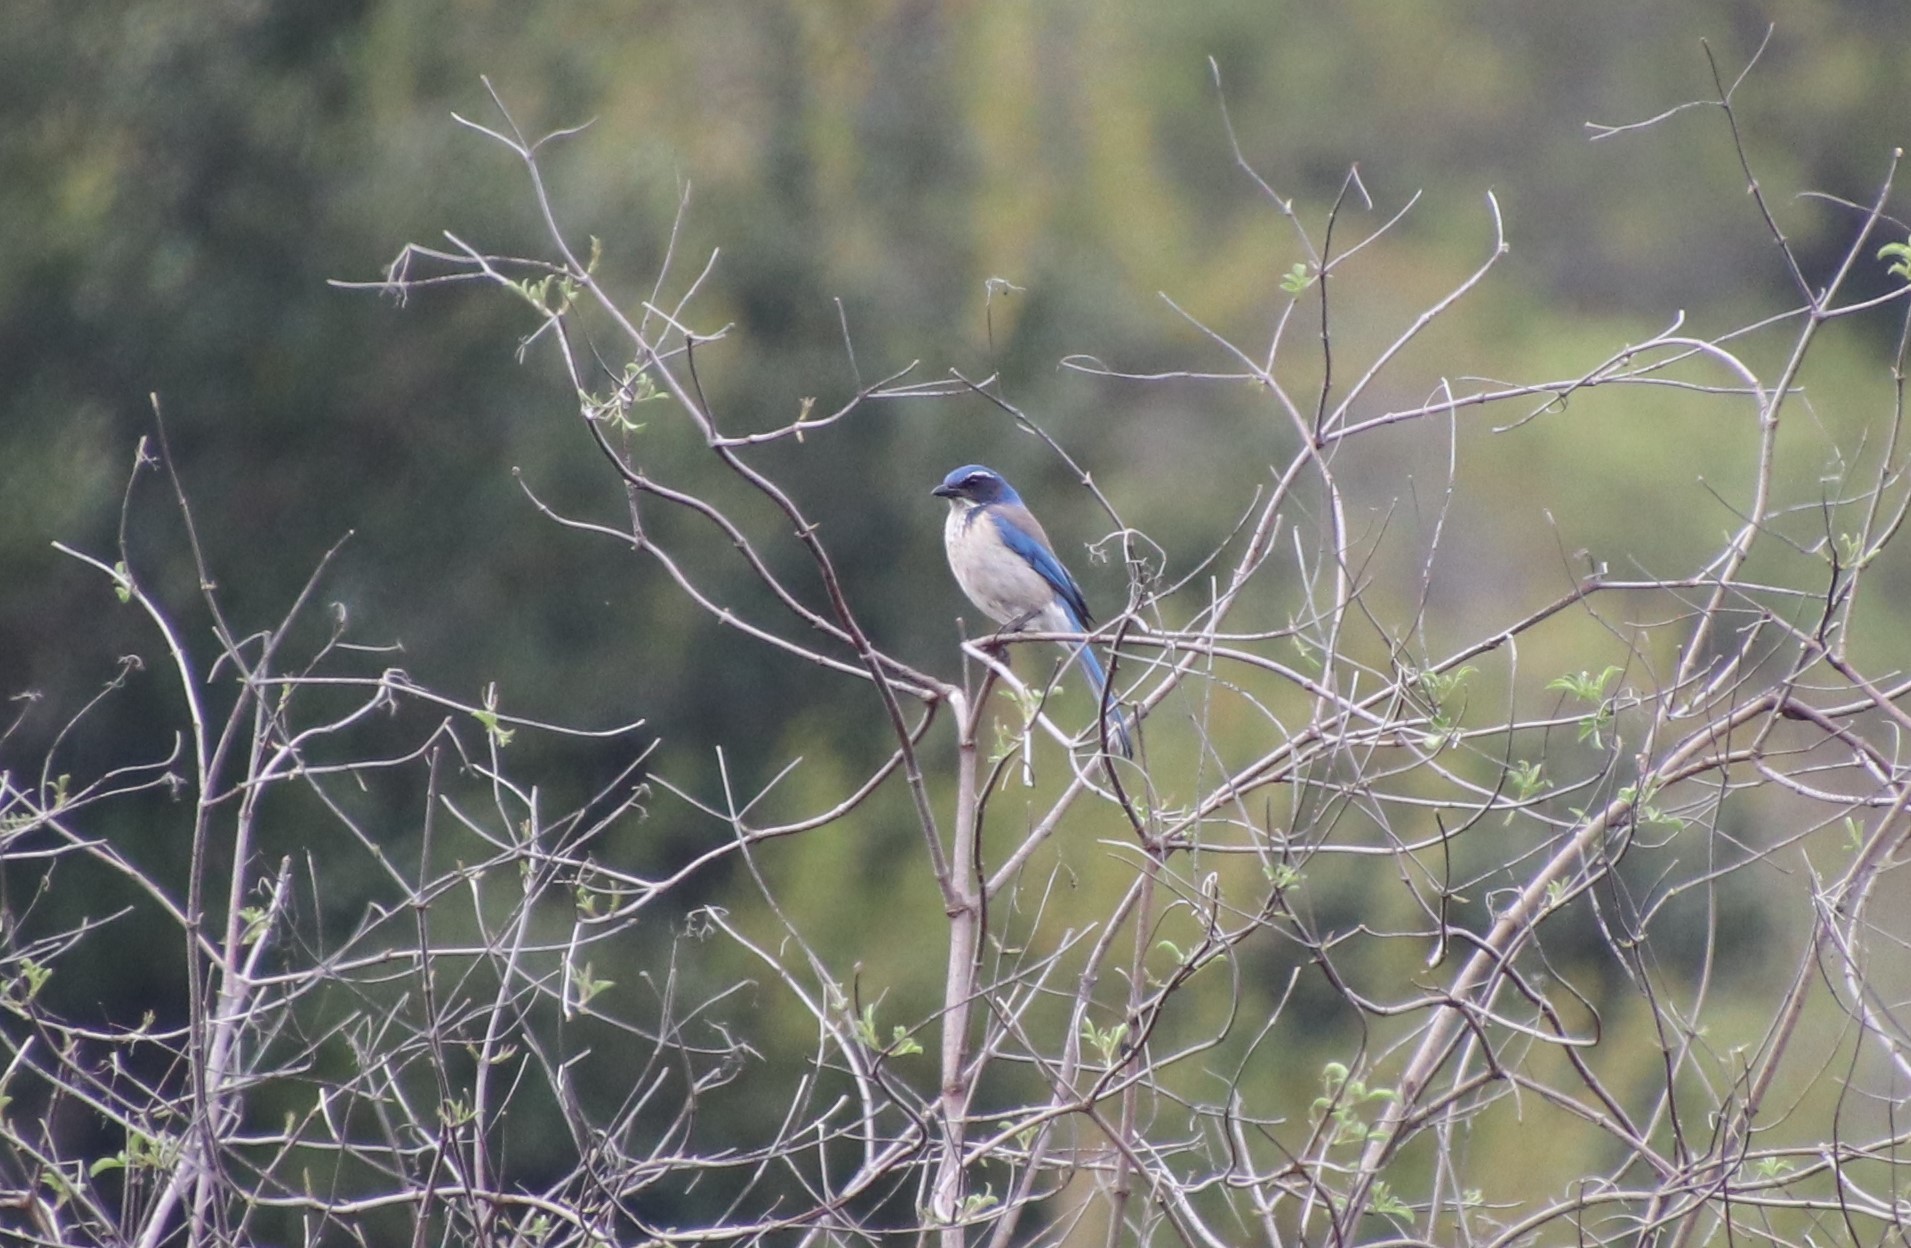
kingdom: Animalia
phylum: Chordata
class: Aves
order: Passeriformes
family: Corvidae
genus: Aphelocoma
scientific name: Aphelocoma californica
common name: California scrub-jay
